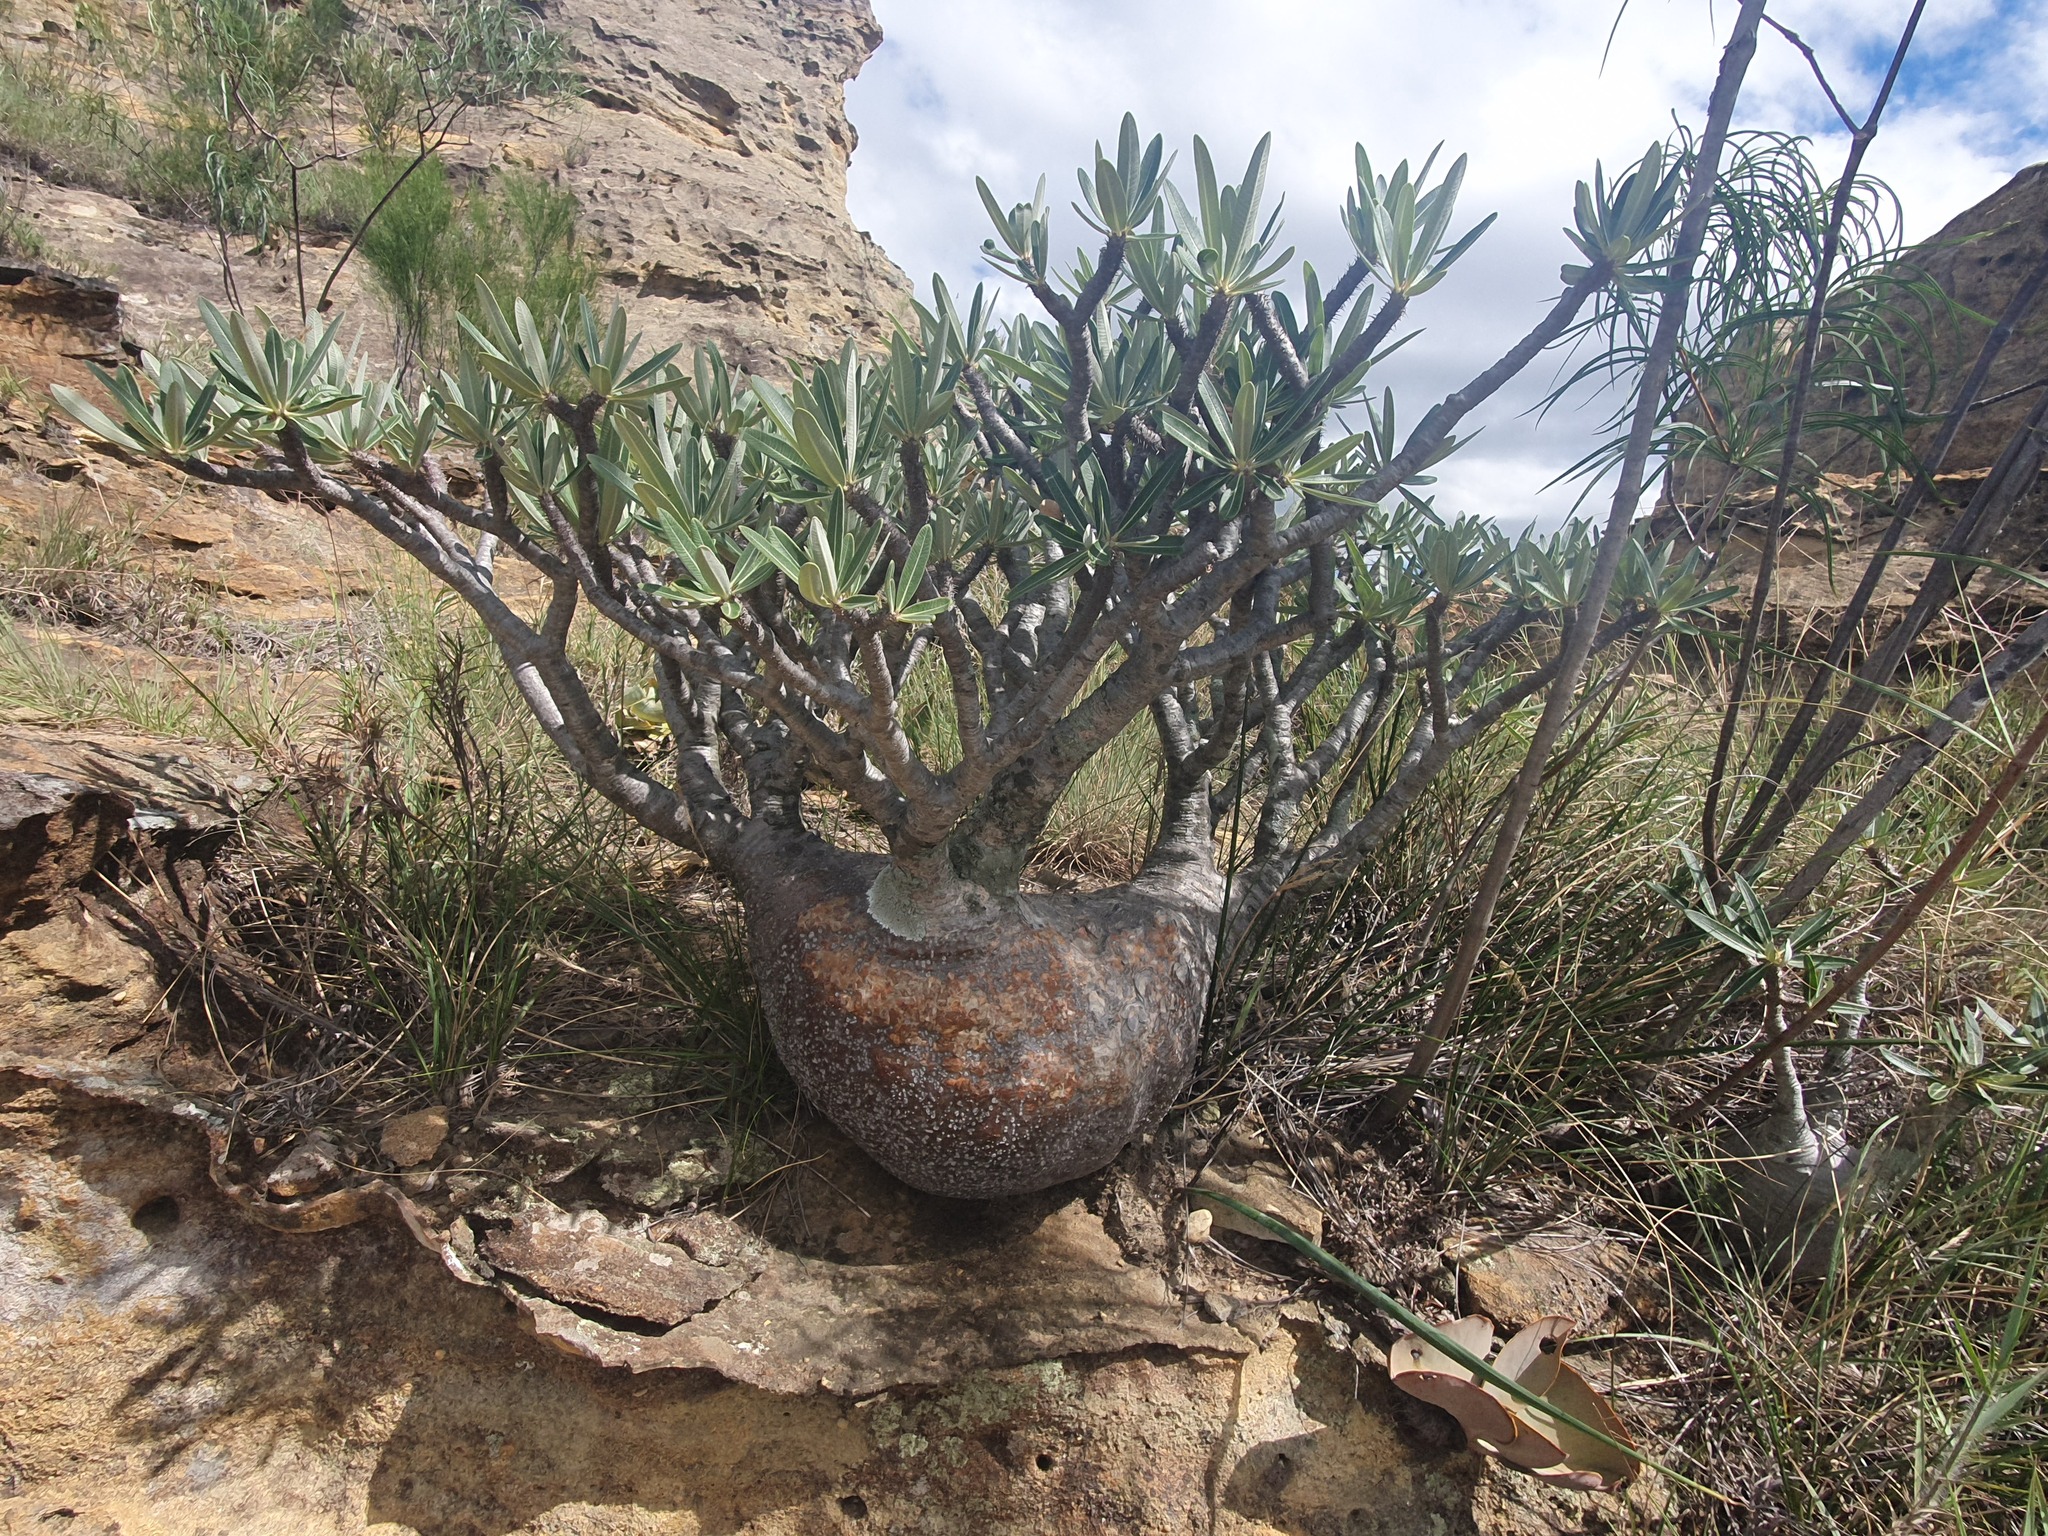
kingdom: Plantae
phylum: Tracheophyta
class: Magnoliopsida
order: Gentianales
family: Apocynaceae
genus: Pachypodium
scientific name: Pachypodium rosulatum
